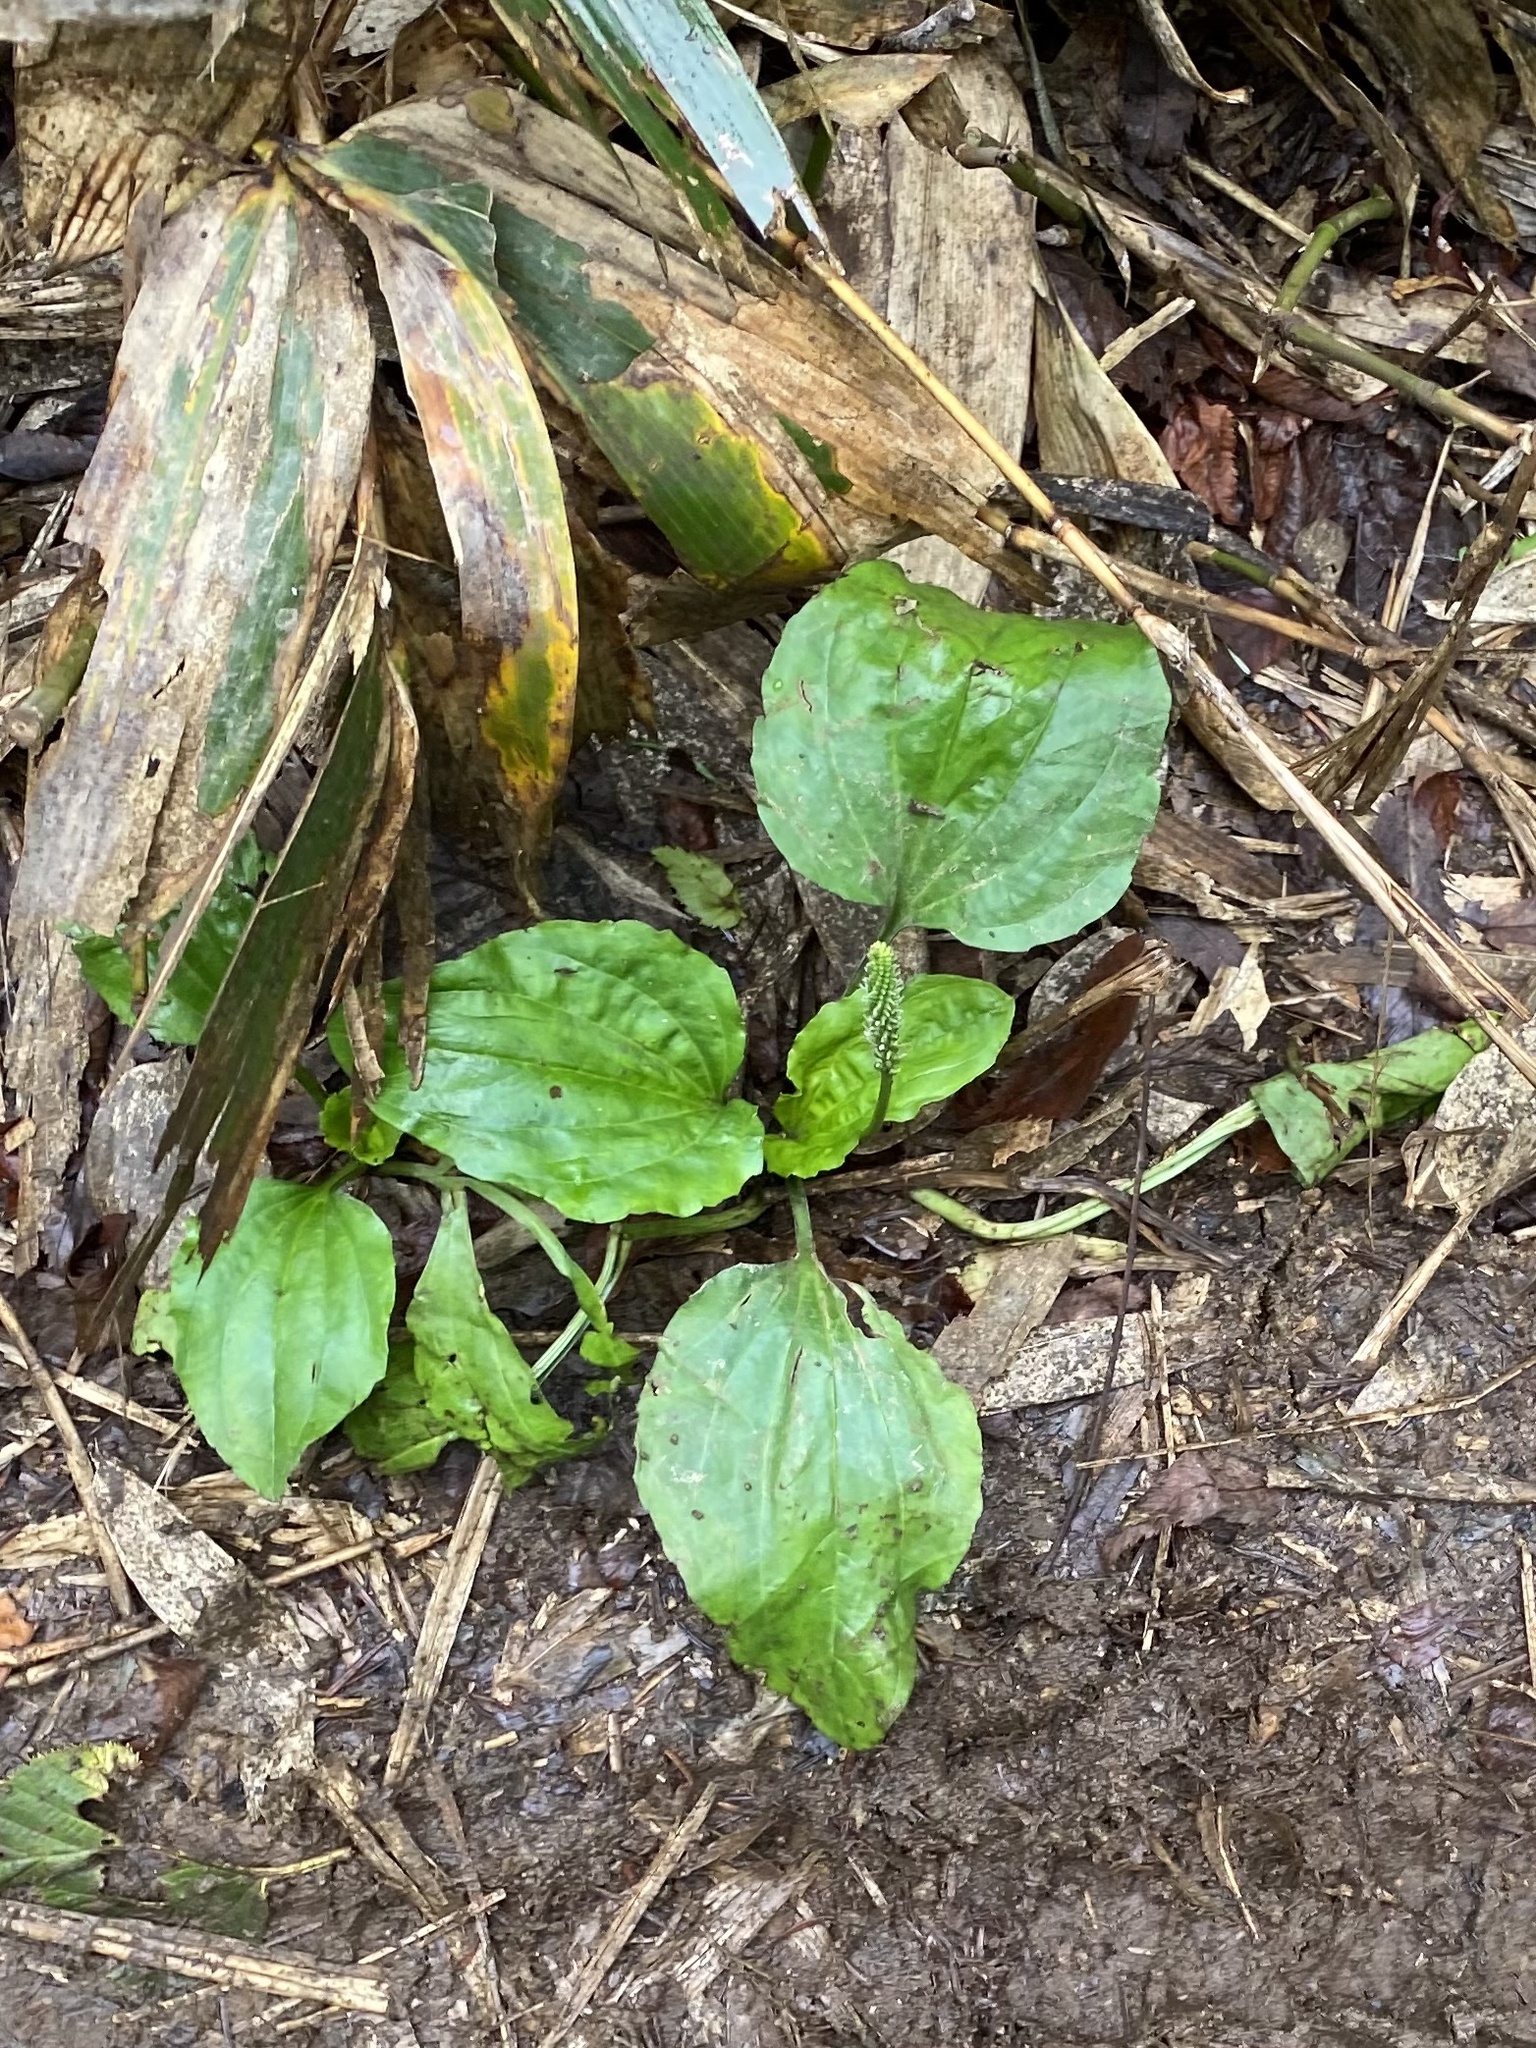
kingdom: Plantae
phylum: Tracheophyta
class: Magnoliopsida
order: Lamiales
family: Plantaginaceae
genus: Plantago
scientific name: Plantago major
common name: Common plantain
